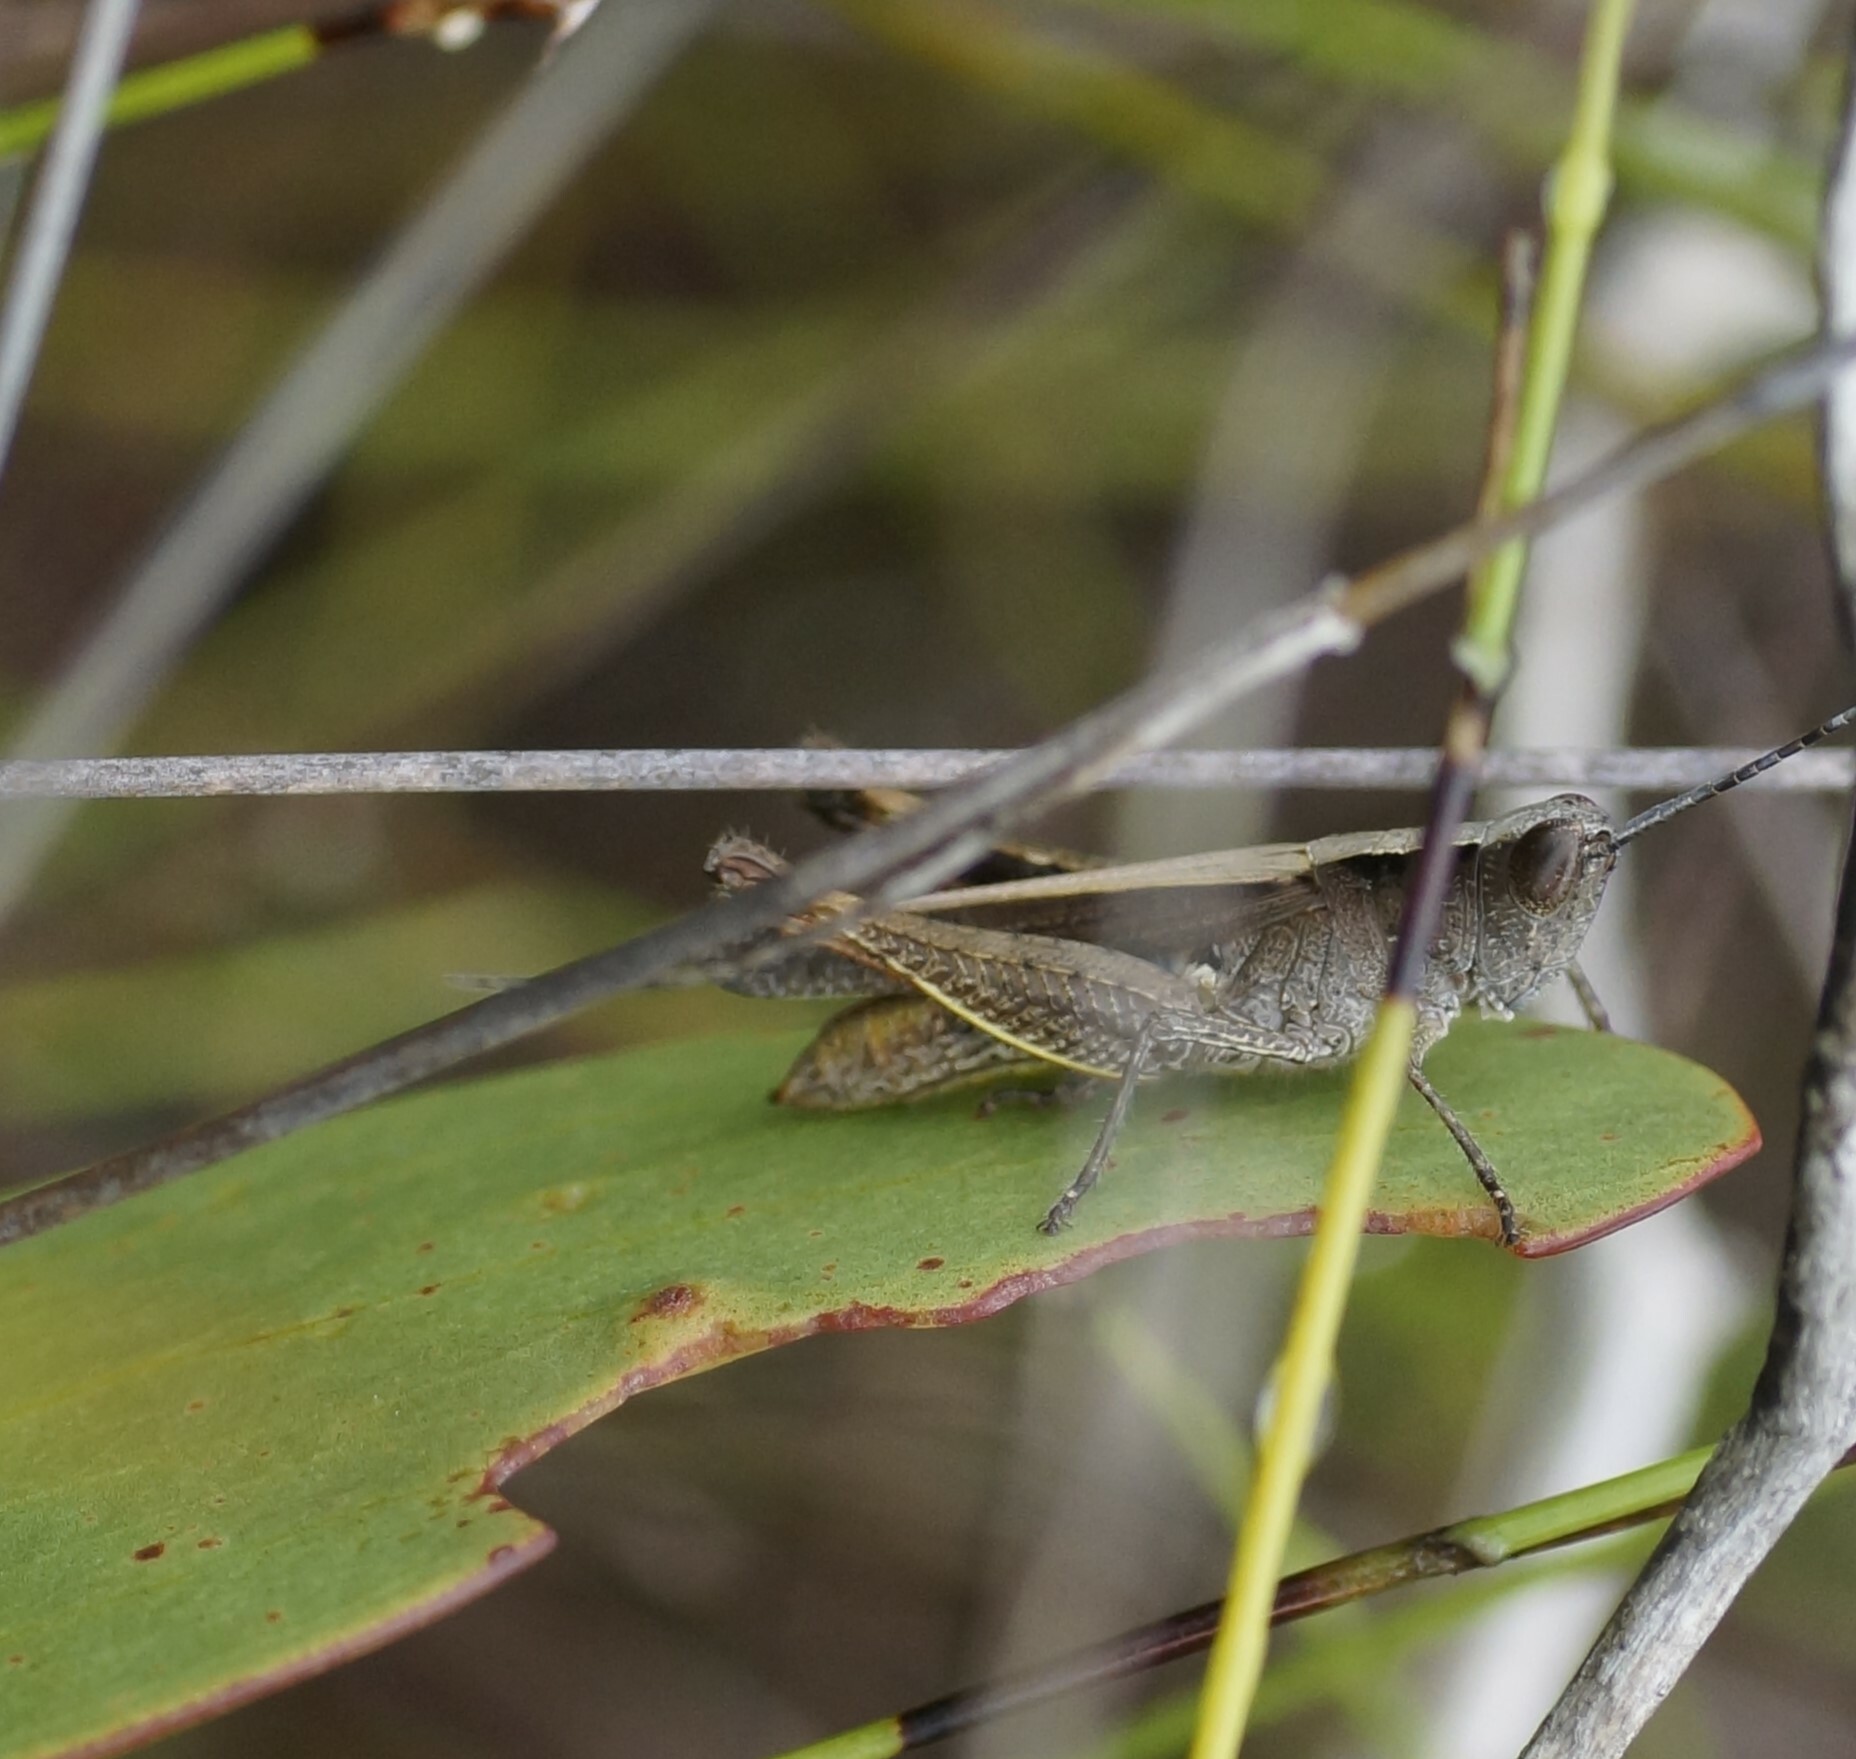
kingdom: Animalia
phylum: Arthropoda
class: Insecta
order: Orthoptera
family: Acrididae
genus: Rectitropis
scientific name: Rectitropis australis
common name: Queensland white-tips
